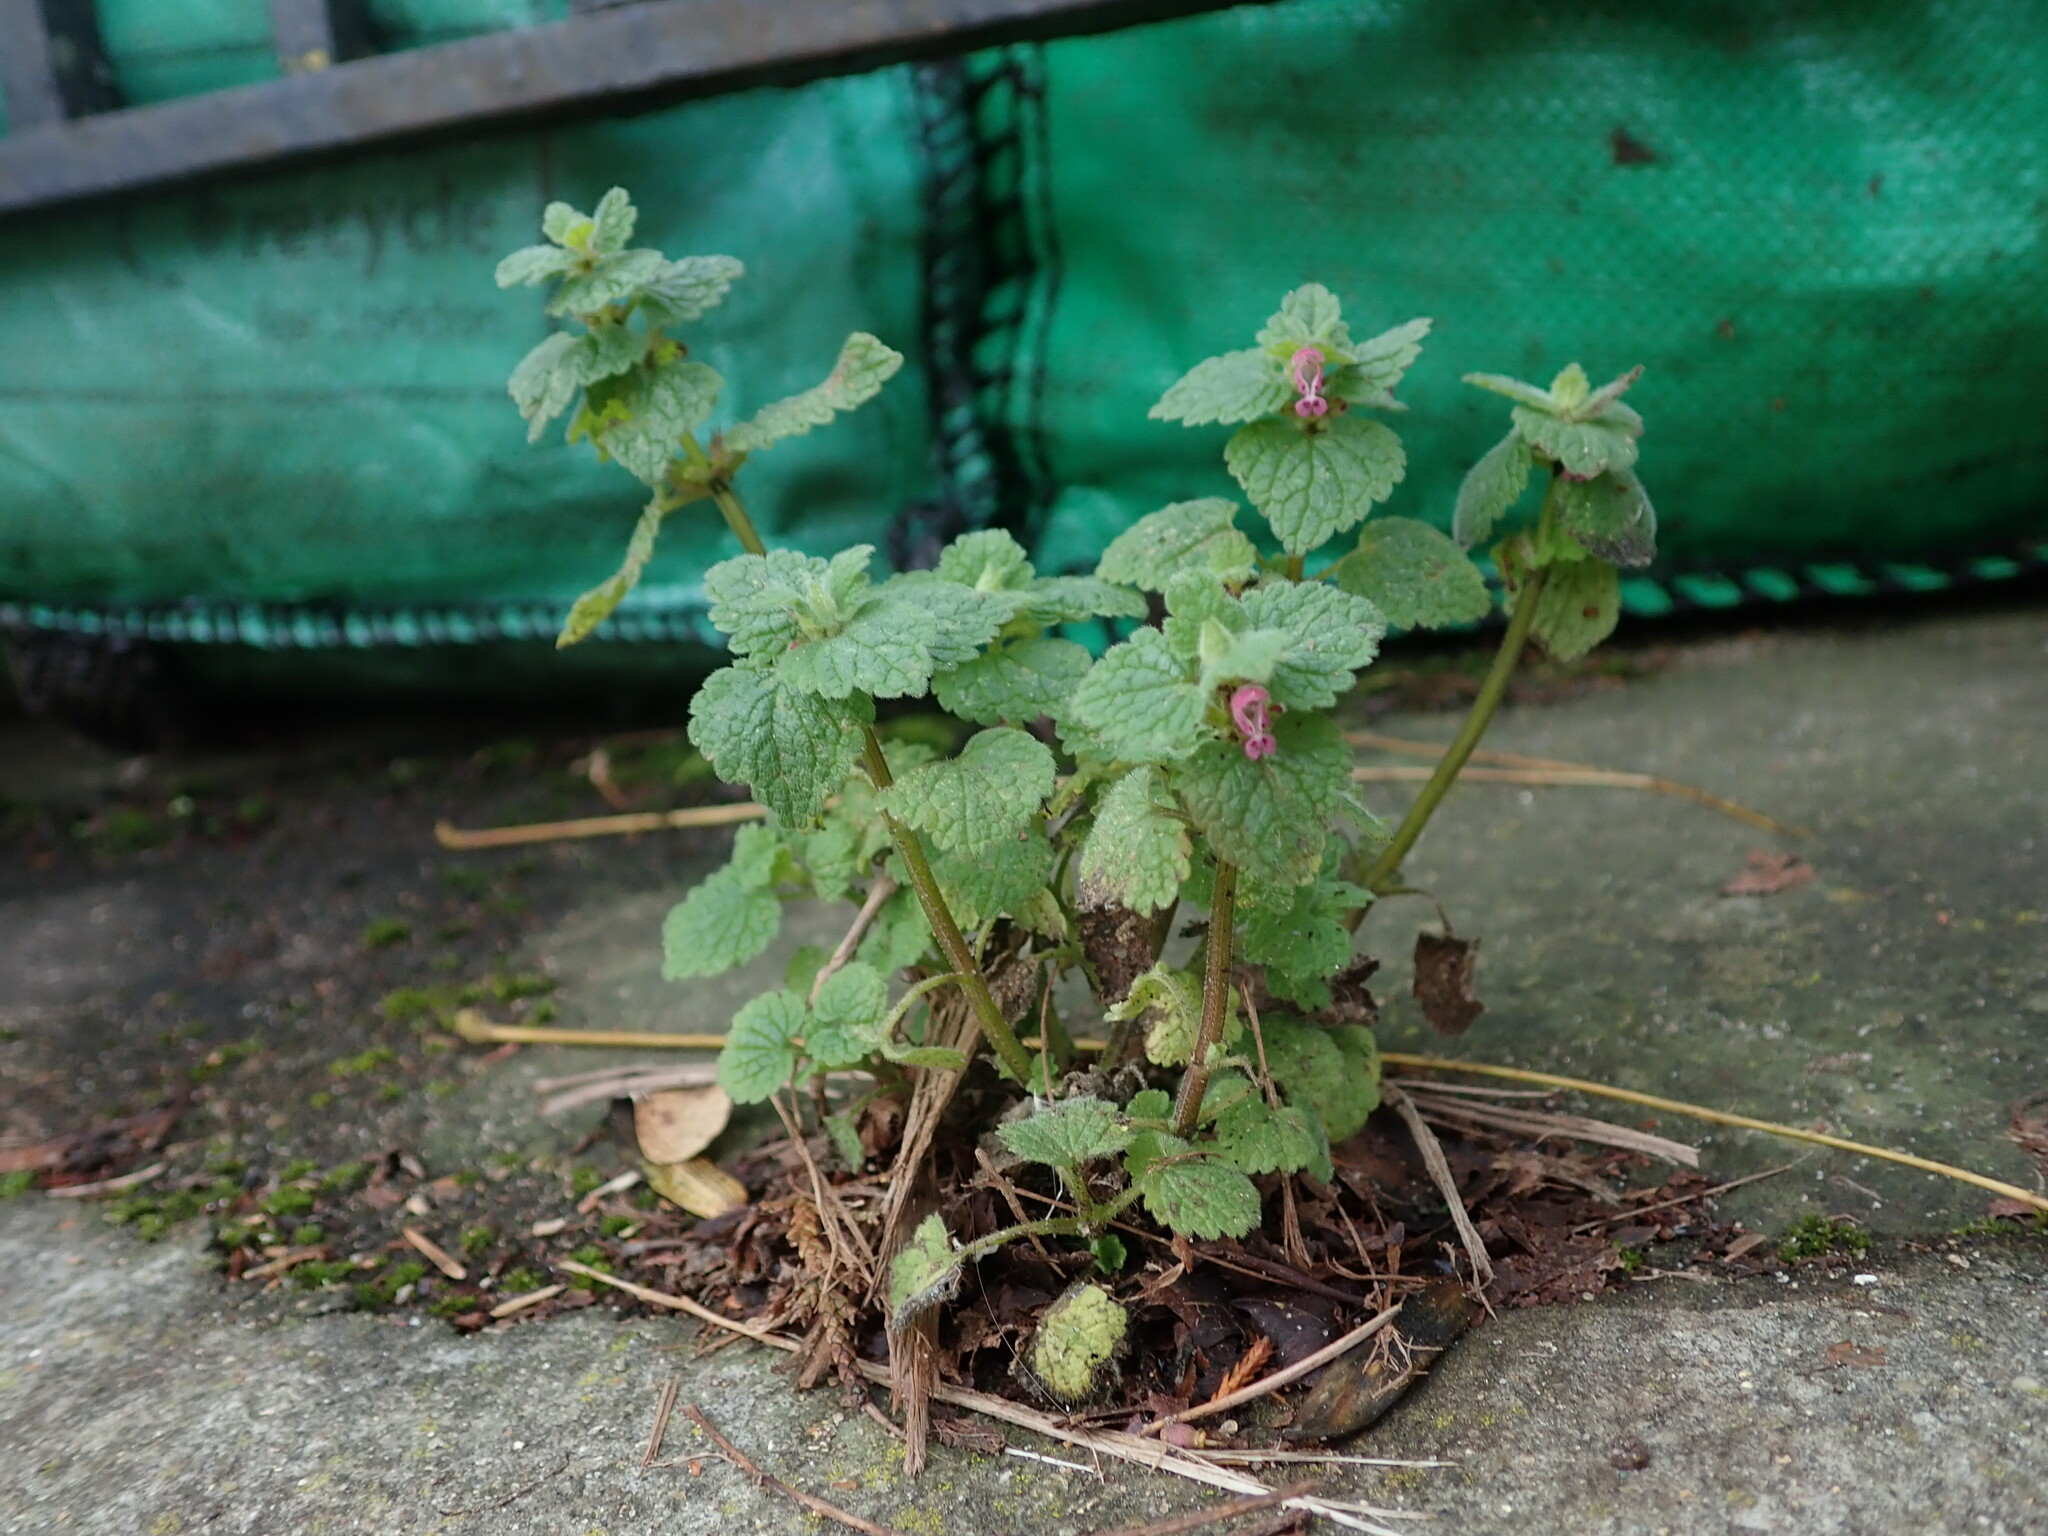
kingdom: Plantae
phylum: Tracheophyta
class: Magnoliopsida
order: Lamiales
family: Lamiaceae
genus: Lamium
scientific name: Lamium purpureum
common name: Red dead-nettle
